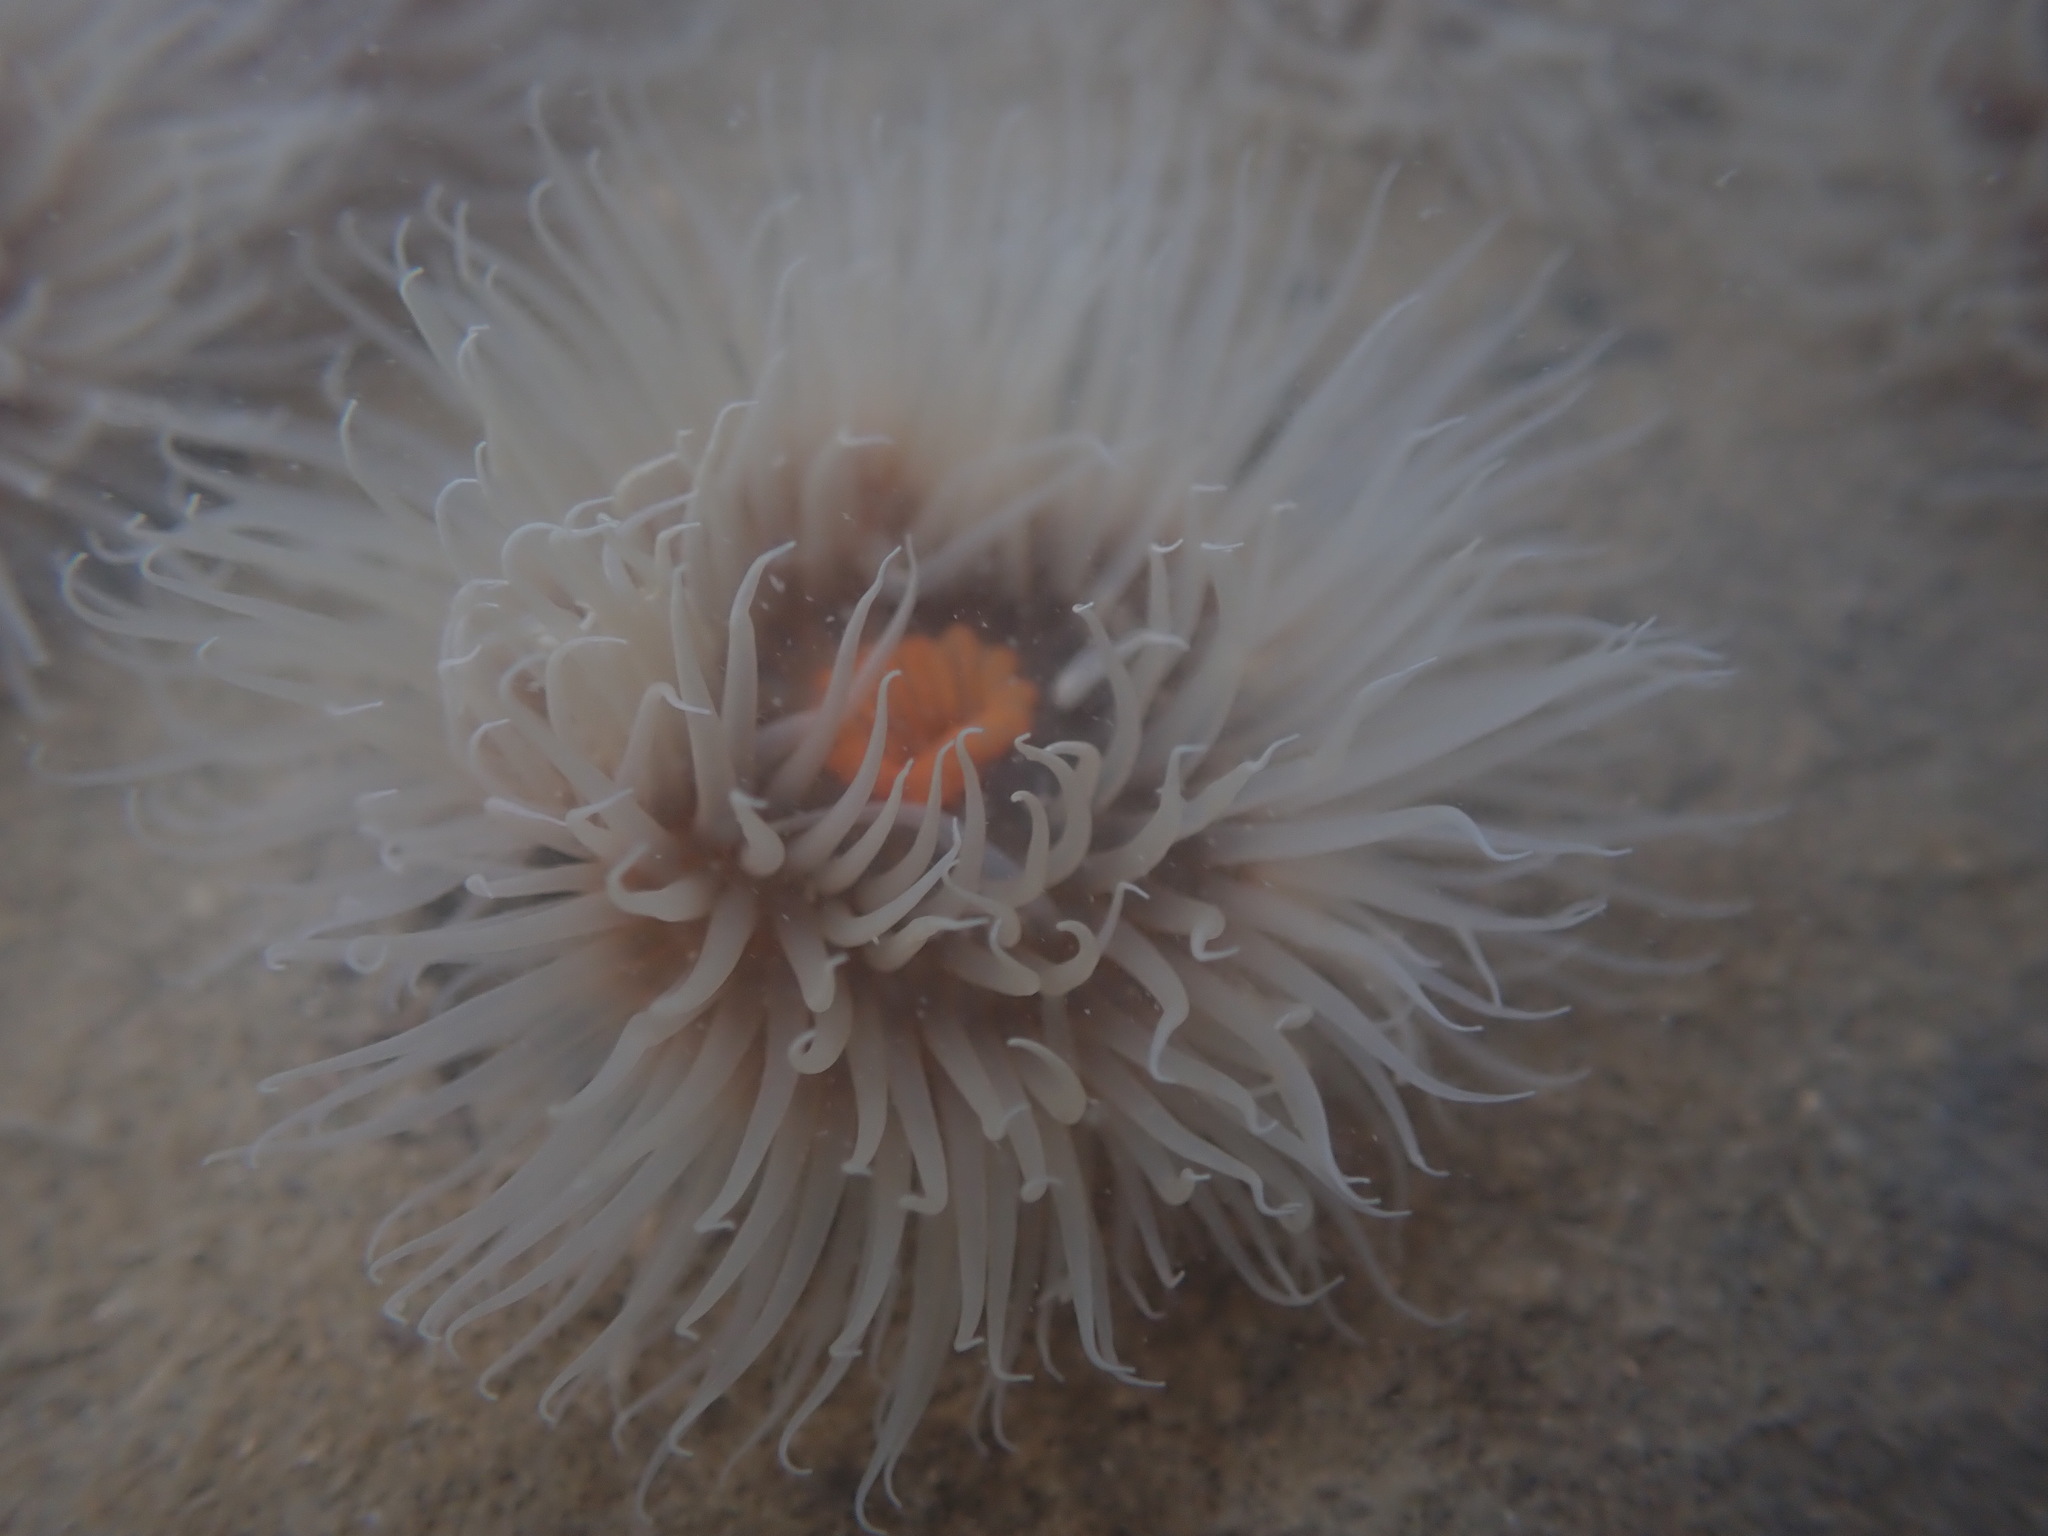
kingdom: Animalia
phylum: Cnidaria
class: Anthozoa
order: Actiniaria
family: Diadumenidae
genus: Diadumene
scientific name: Diadumene neozelanica
